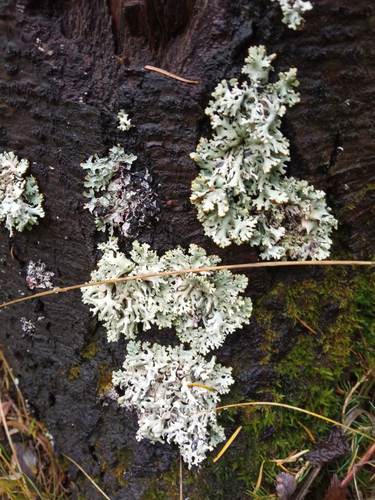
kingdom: Fungi
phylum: Ascomycota
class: Lecanoromycetes
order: Lecanorales
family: Parmeliaceae
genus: Hypogymnia
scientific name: Hypogymnia physodes
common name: Dark crottle
